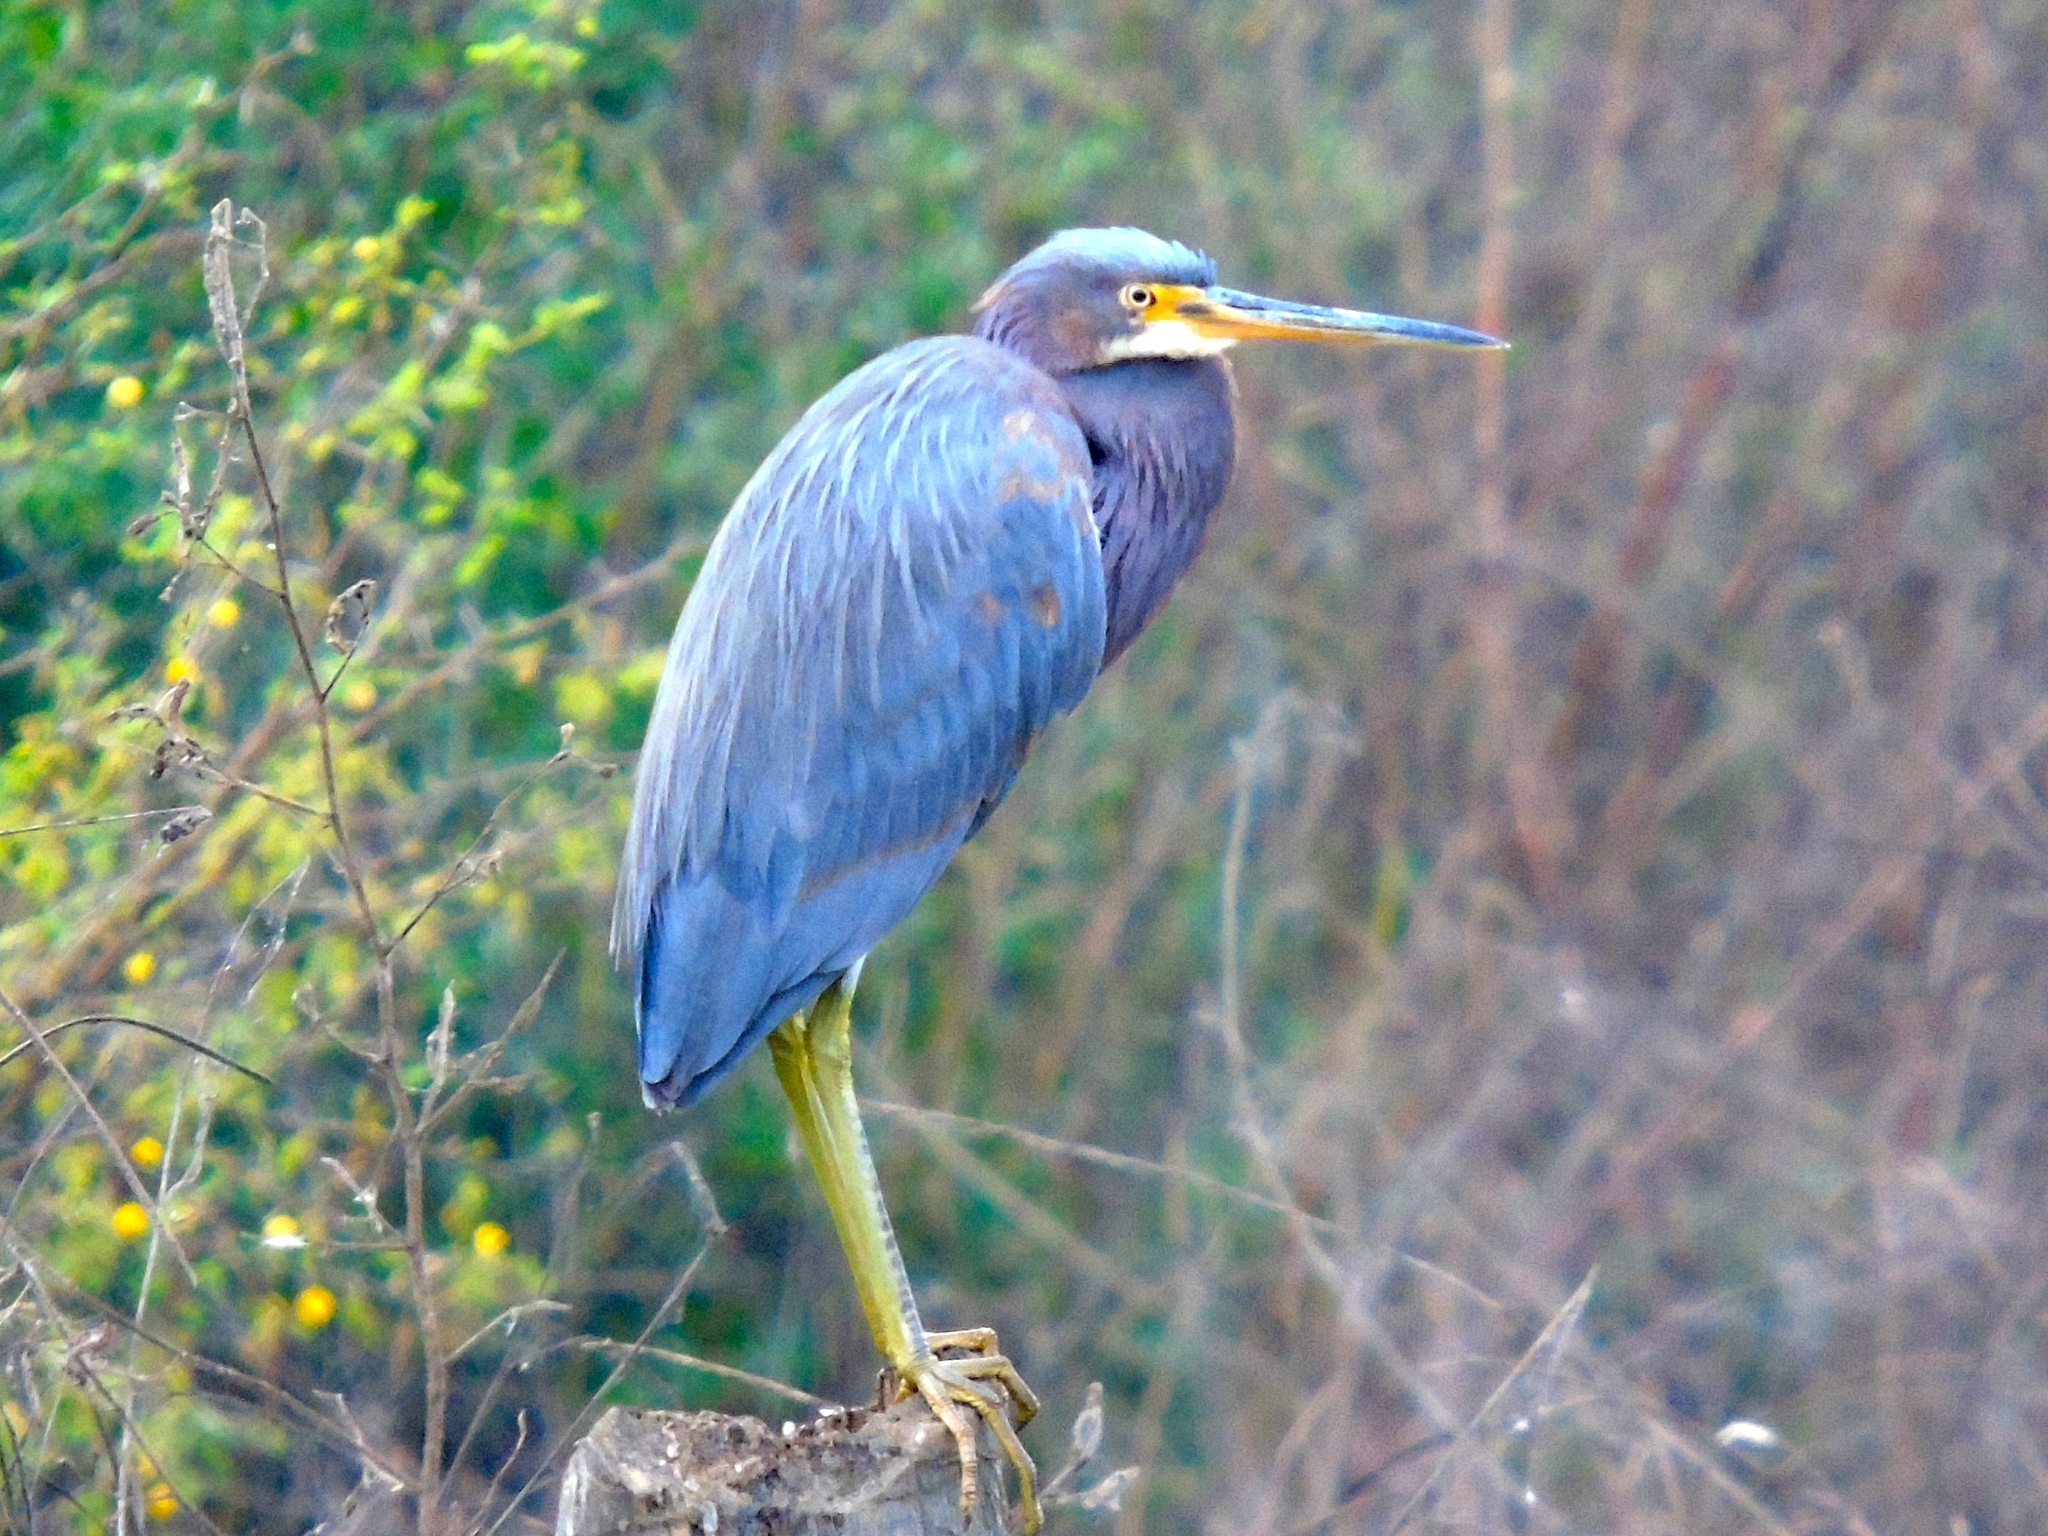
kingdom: Animalia
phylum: Chordata
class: Aves
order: Pelecaniformes
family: Ardeidae
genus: Egretta
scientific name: Egretta tricolor
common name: Tricolored heron
